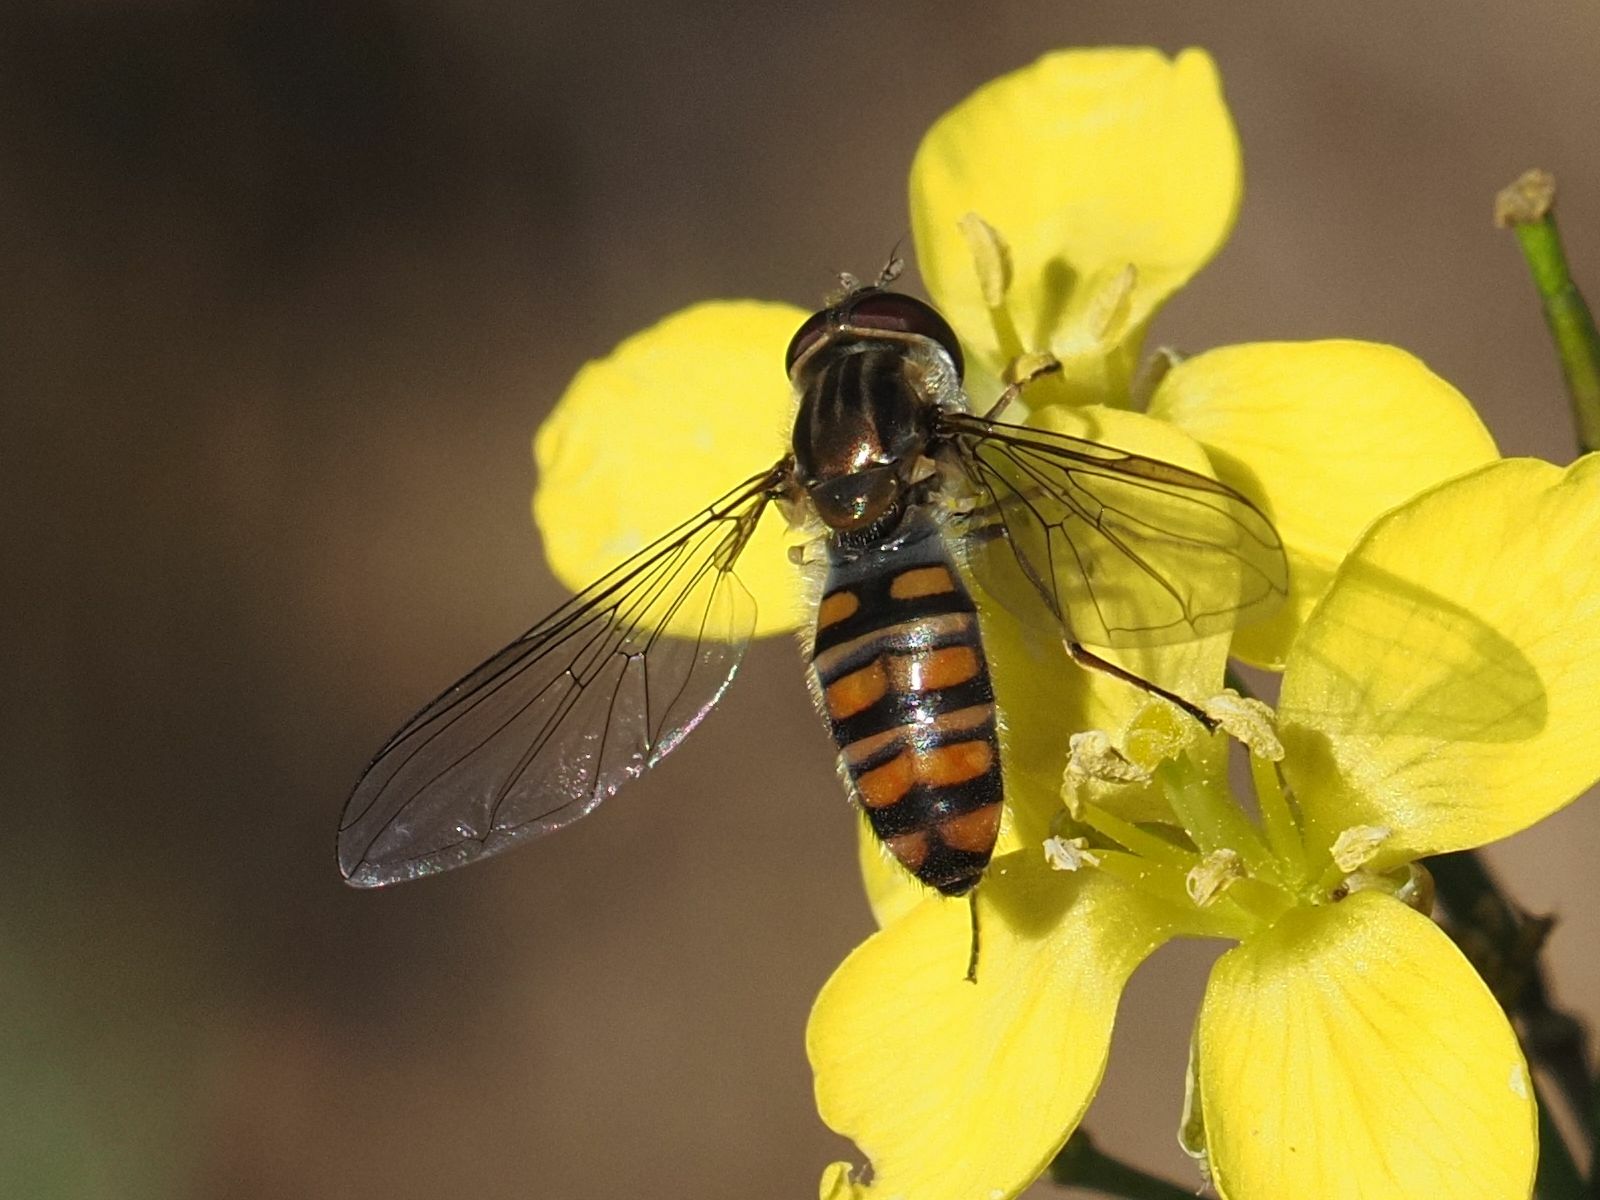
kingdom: Animalia
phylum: Arthropoda
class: Insecta
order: Diptera
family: Syrphidae
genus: Episyrphus
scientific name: Episyrphus balteatus
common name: Marmalade hoverfly
